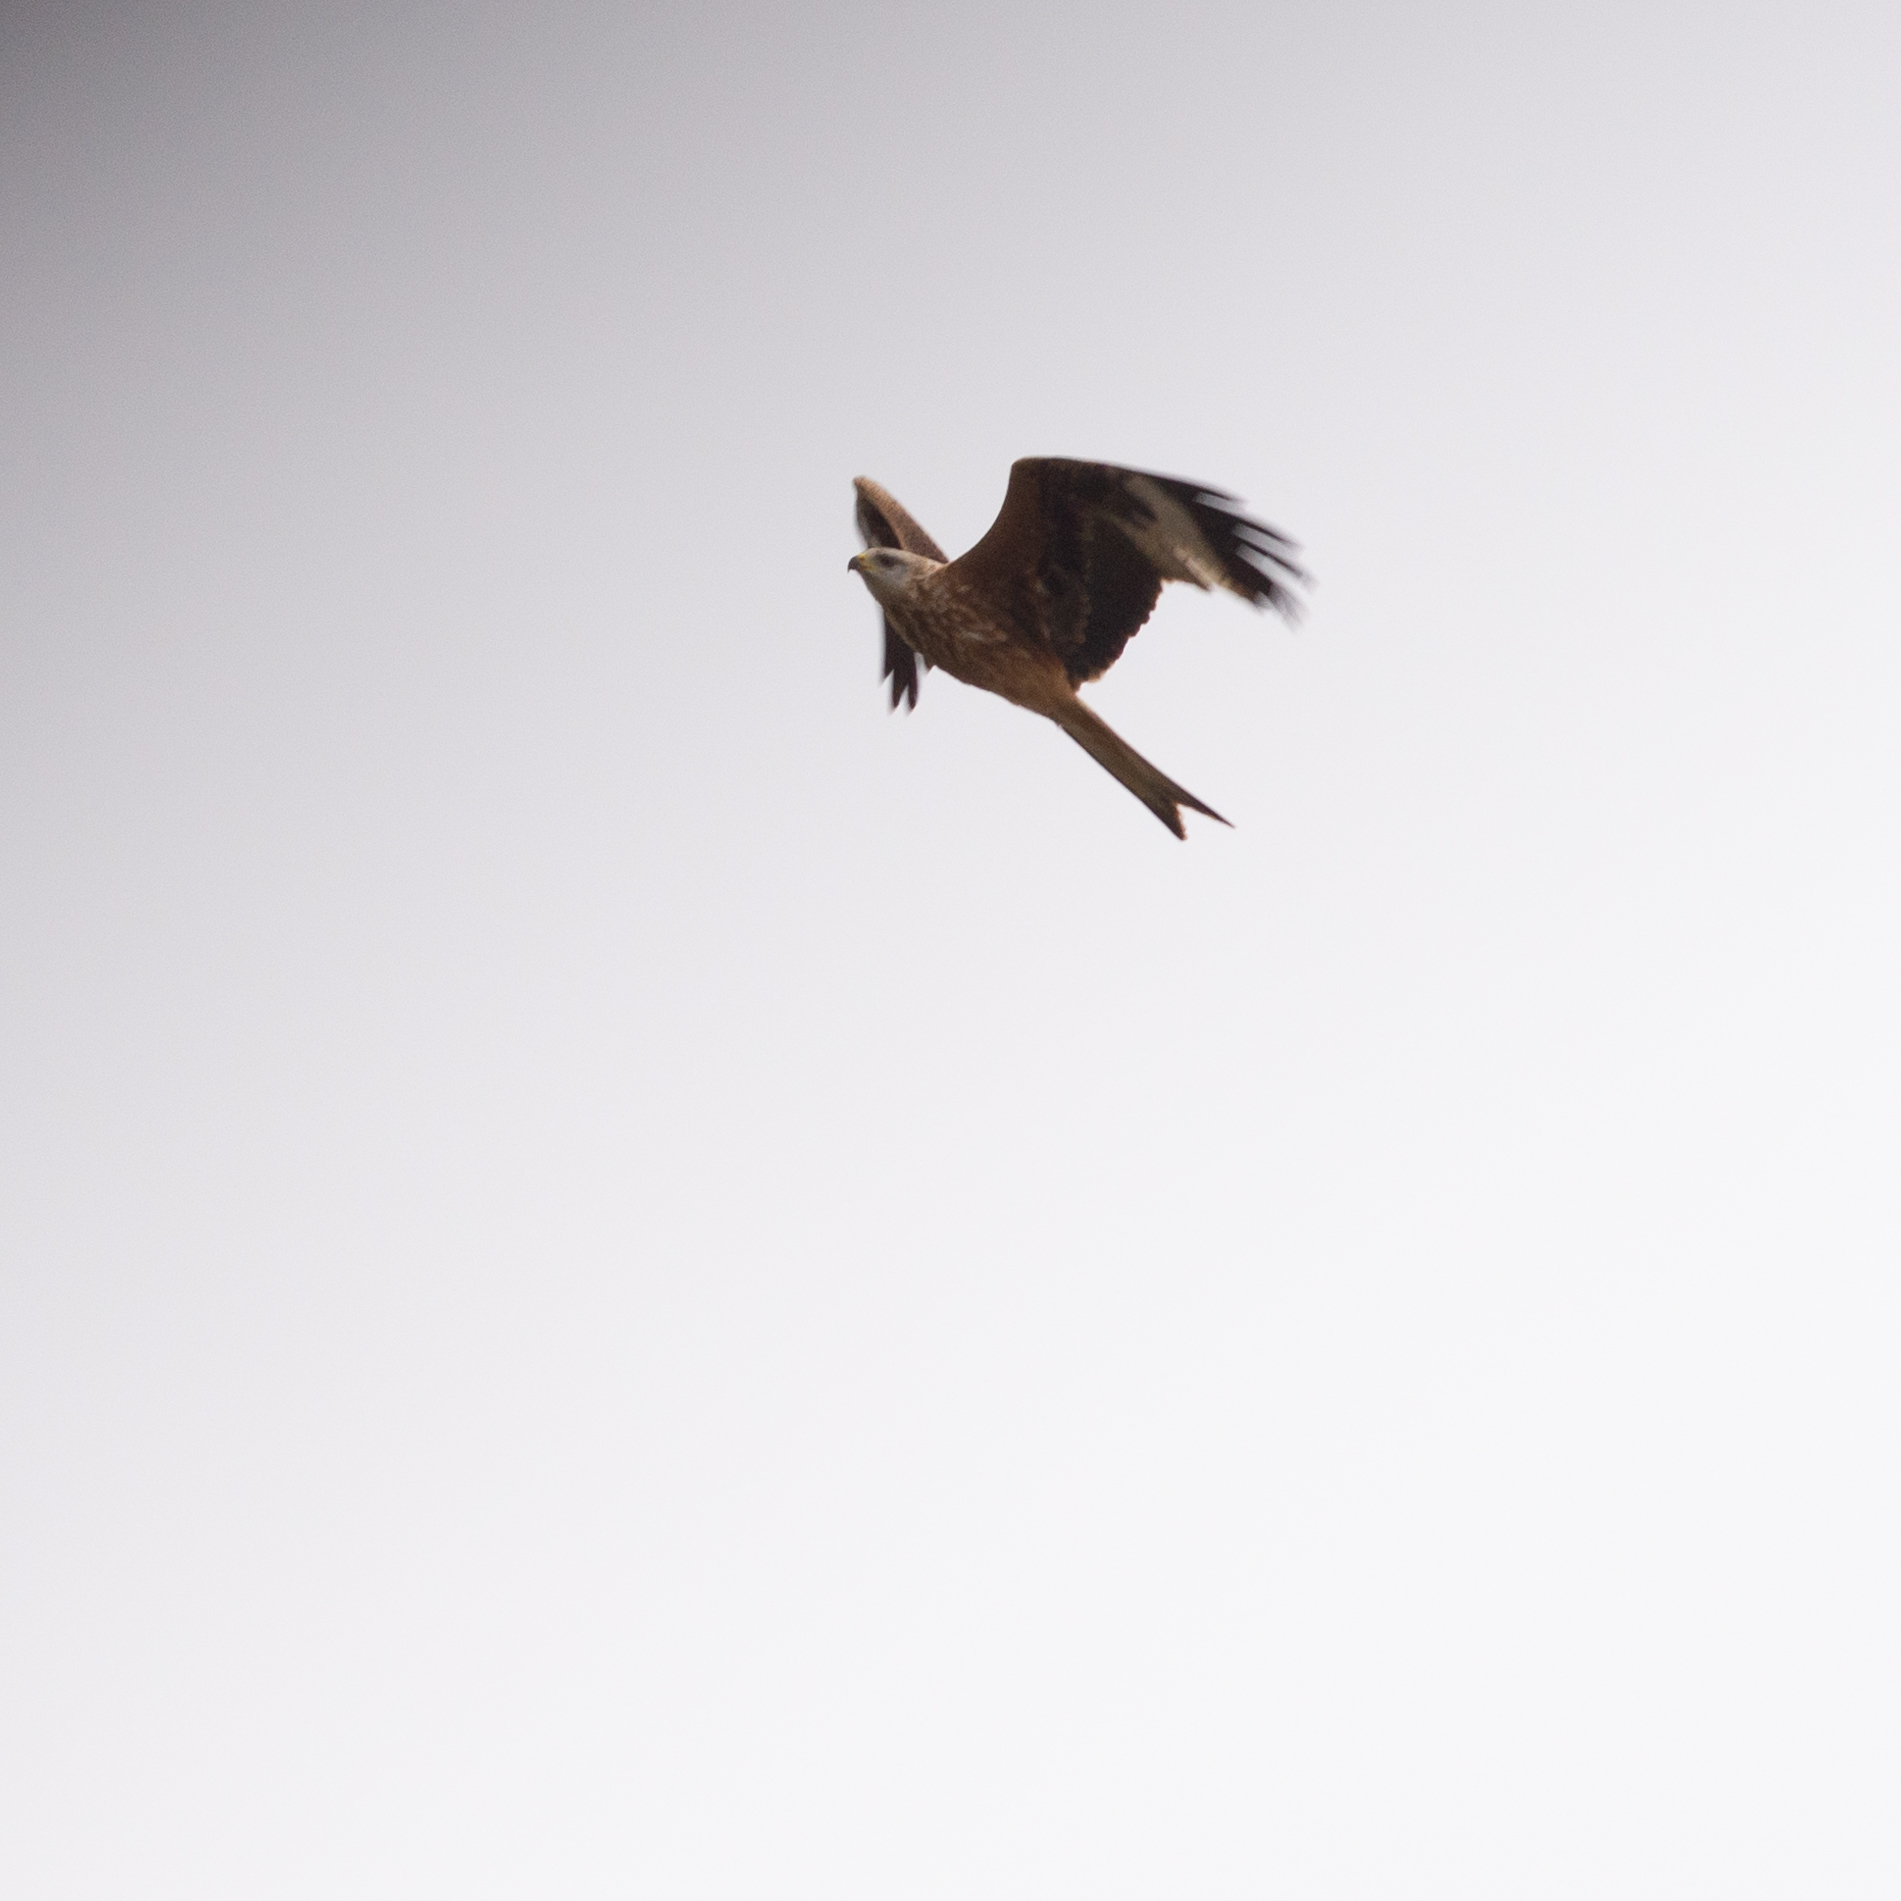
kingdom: Animalia
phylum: Chordata
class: Aves
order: Accipitriformes
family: Accipitridae
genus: Milvus
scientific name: Milvus milvus
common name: Red kite
